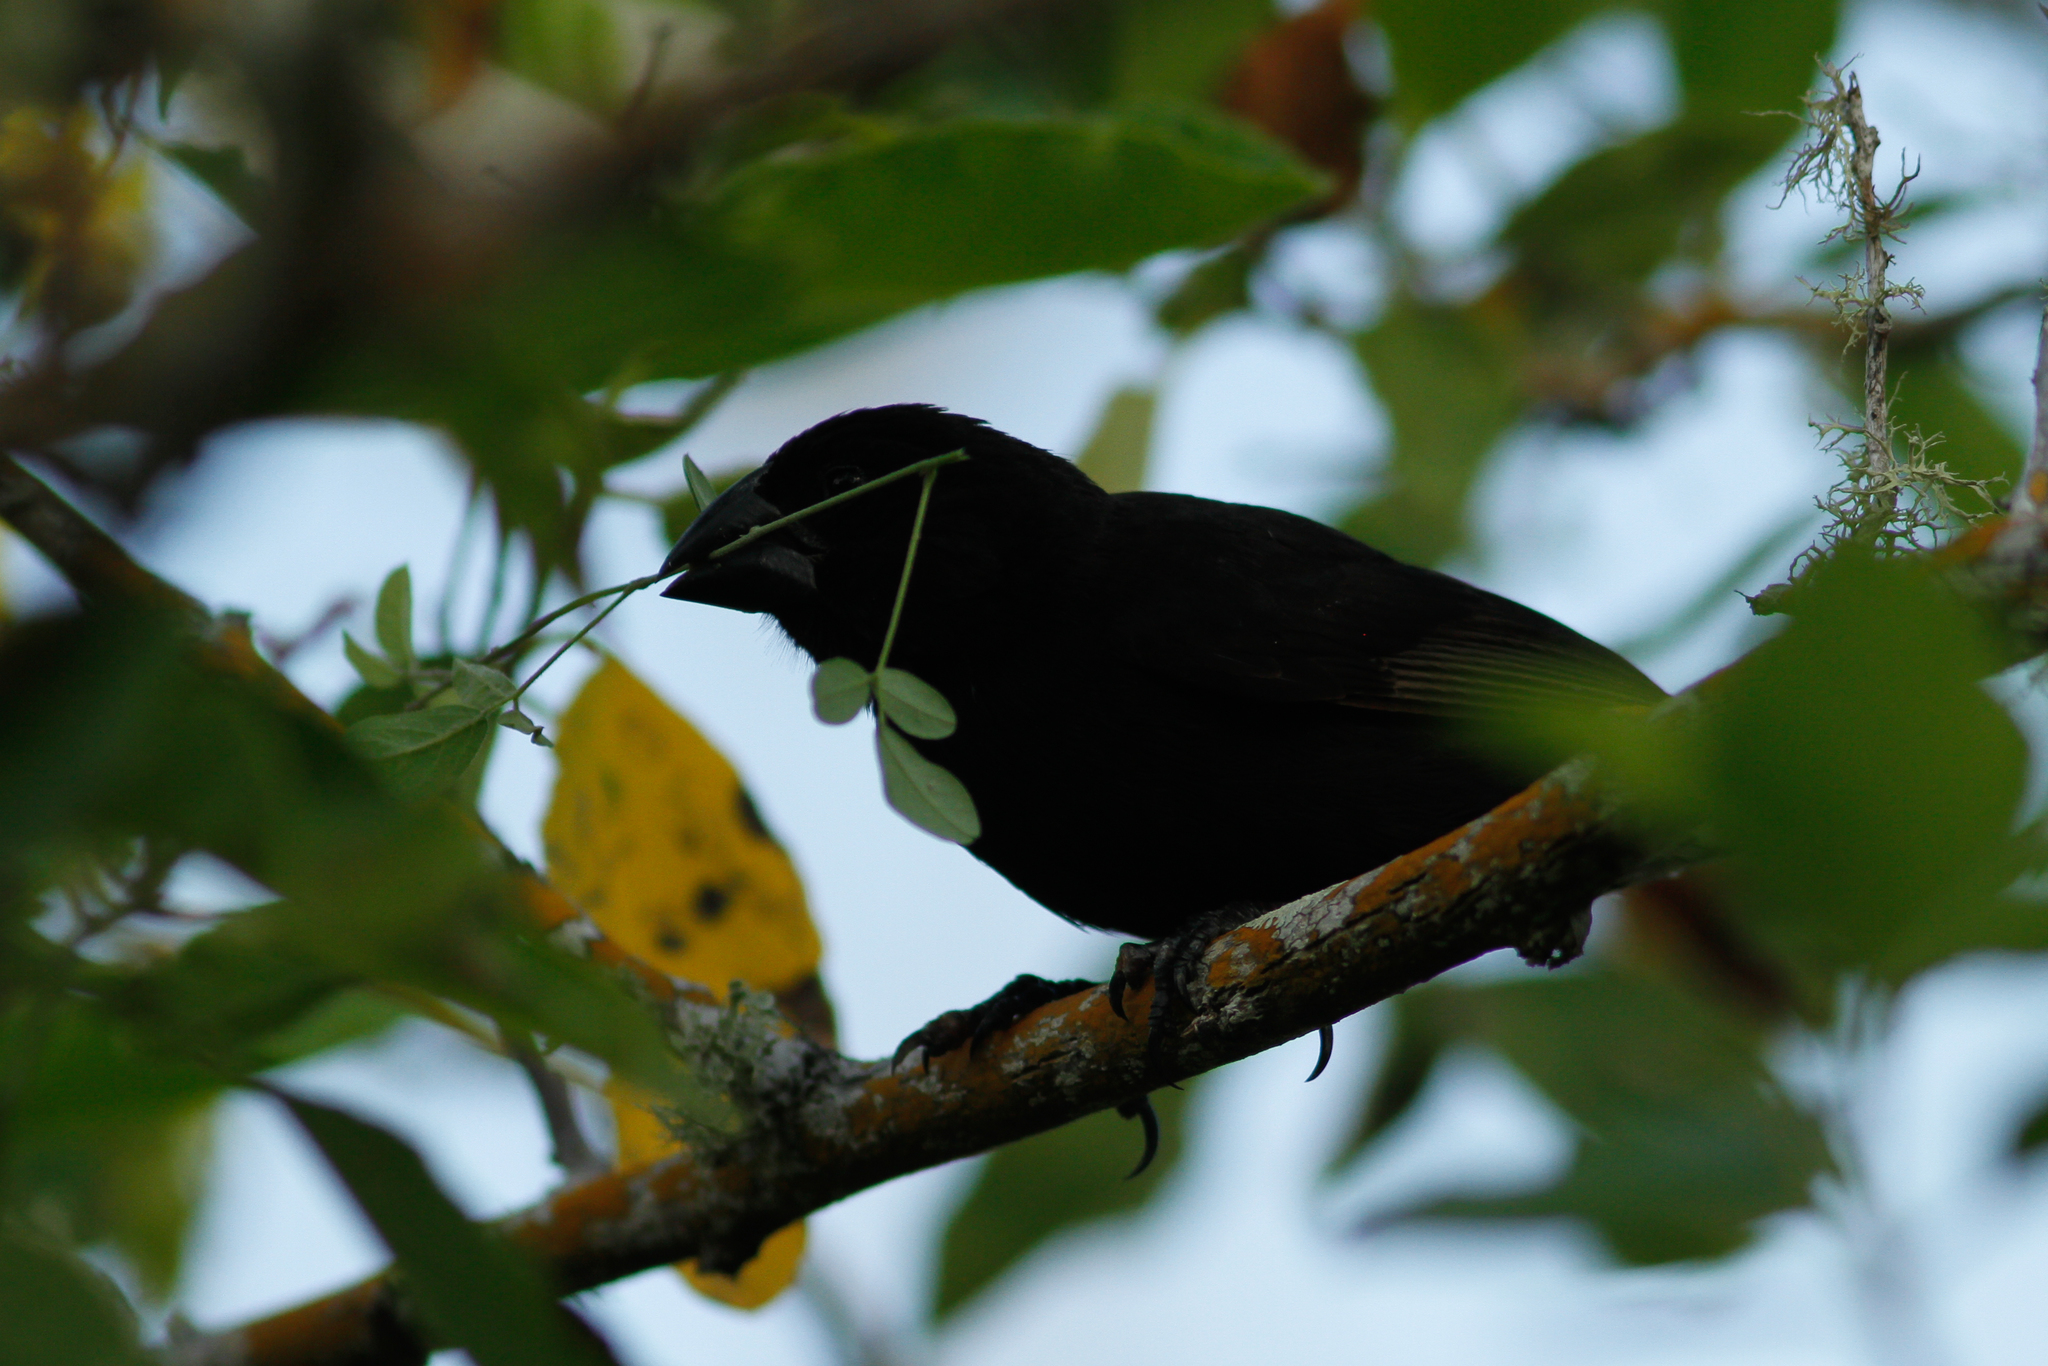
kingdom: Animalia
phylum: Chordata
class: Aves
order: Passeriformes
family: Thraupidae
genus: Geospiza
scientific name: Geospiza fortis
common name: Medium ground finch
